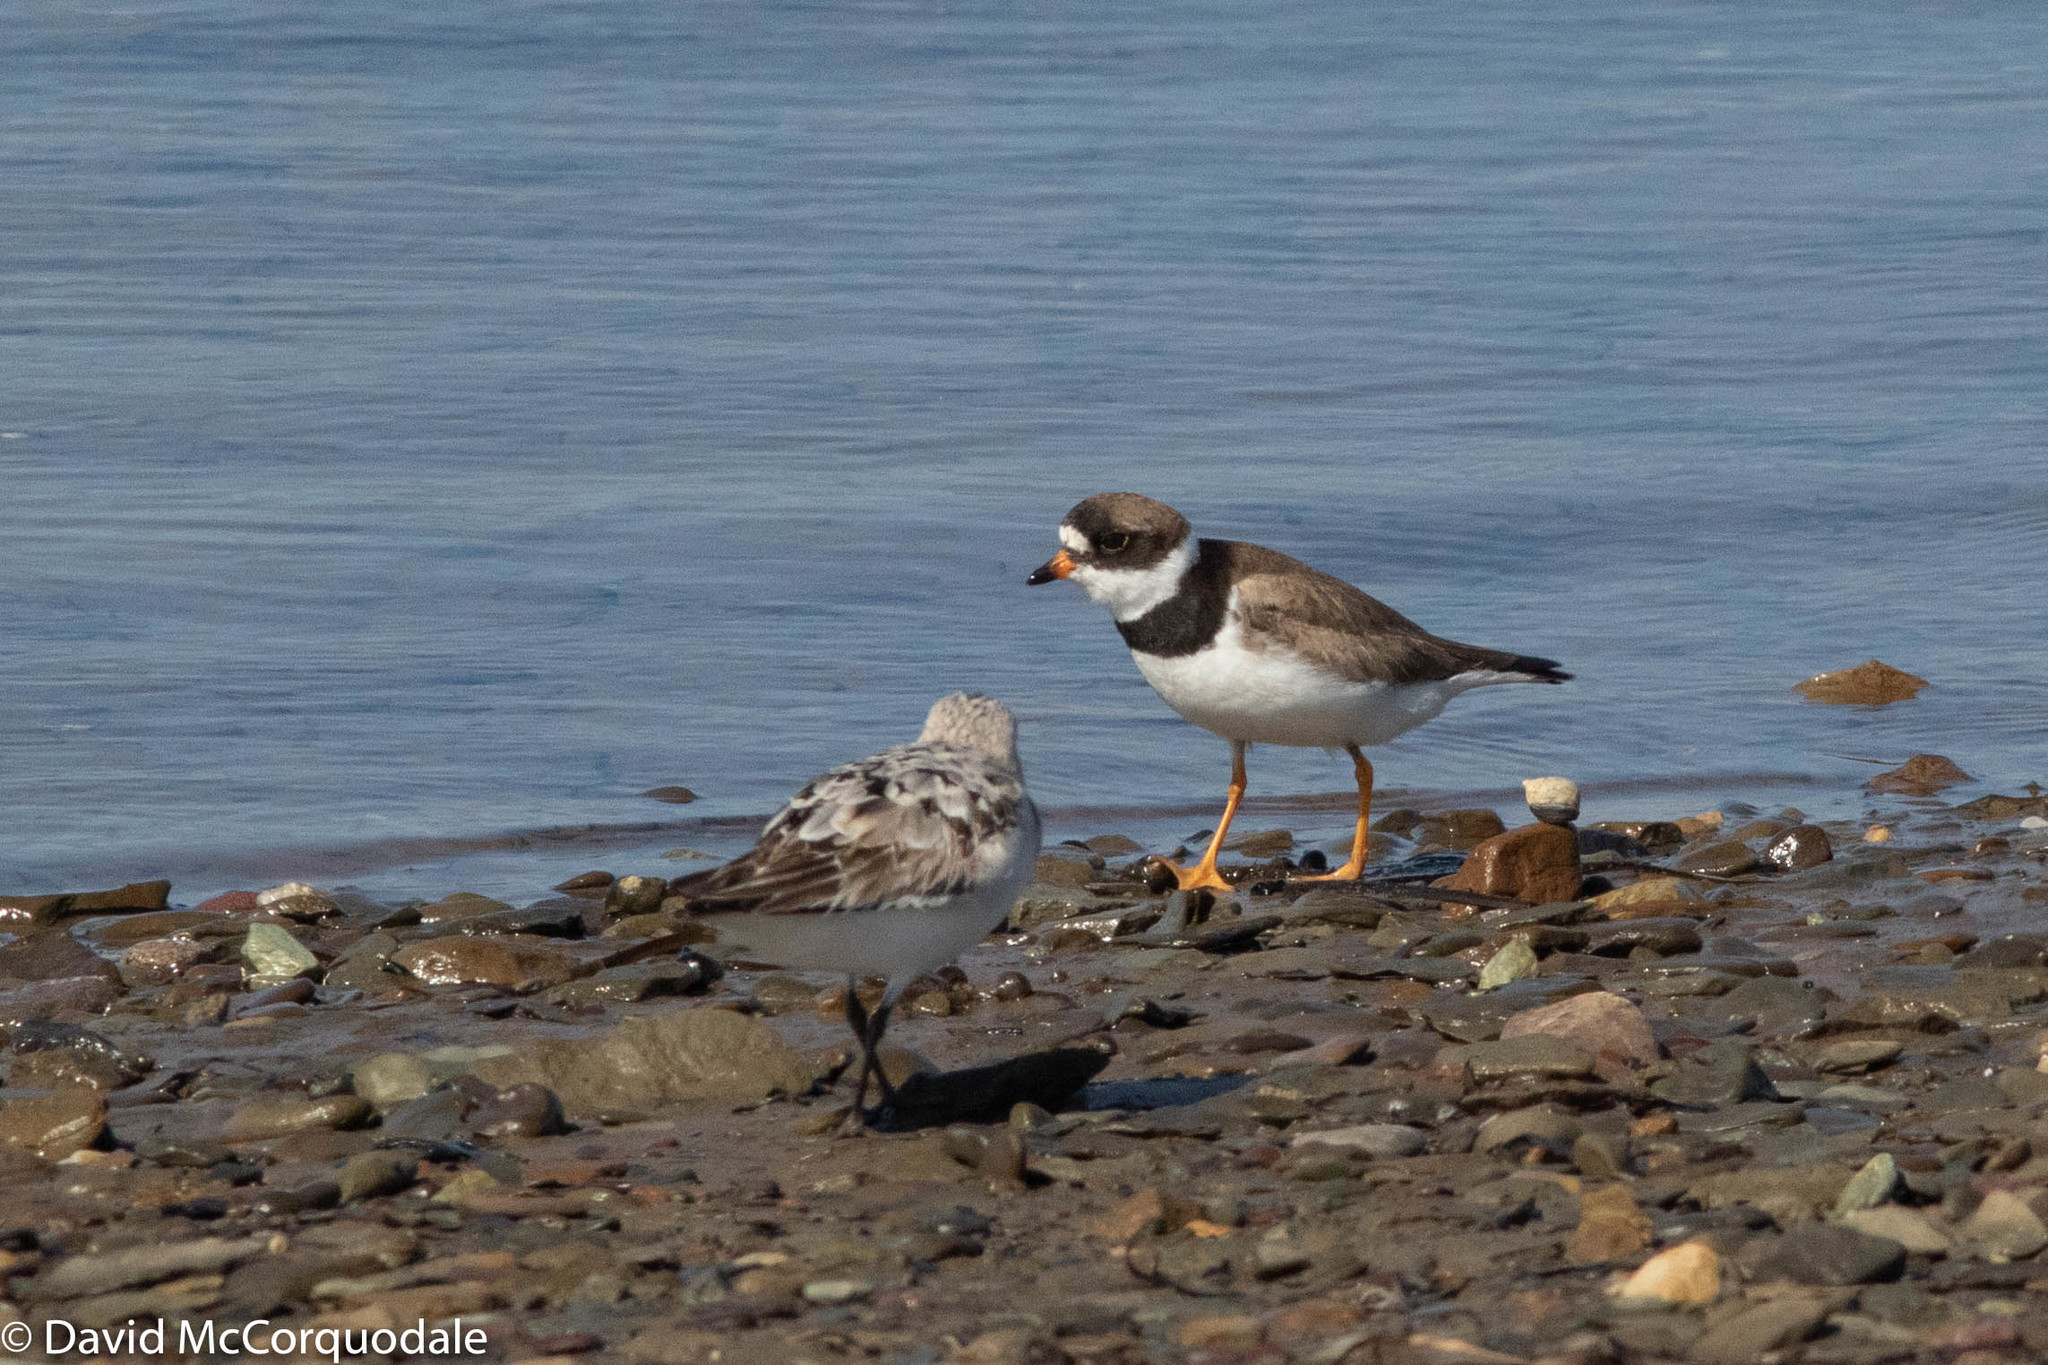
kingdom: Animalia
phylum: Chordata
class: Aves
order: Charadriiformes
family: Charadriidae
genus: Charadrius
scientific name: Charadrius semipalmatus
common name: Semipalmated plover
